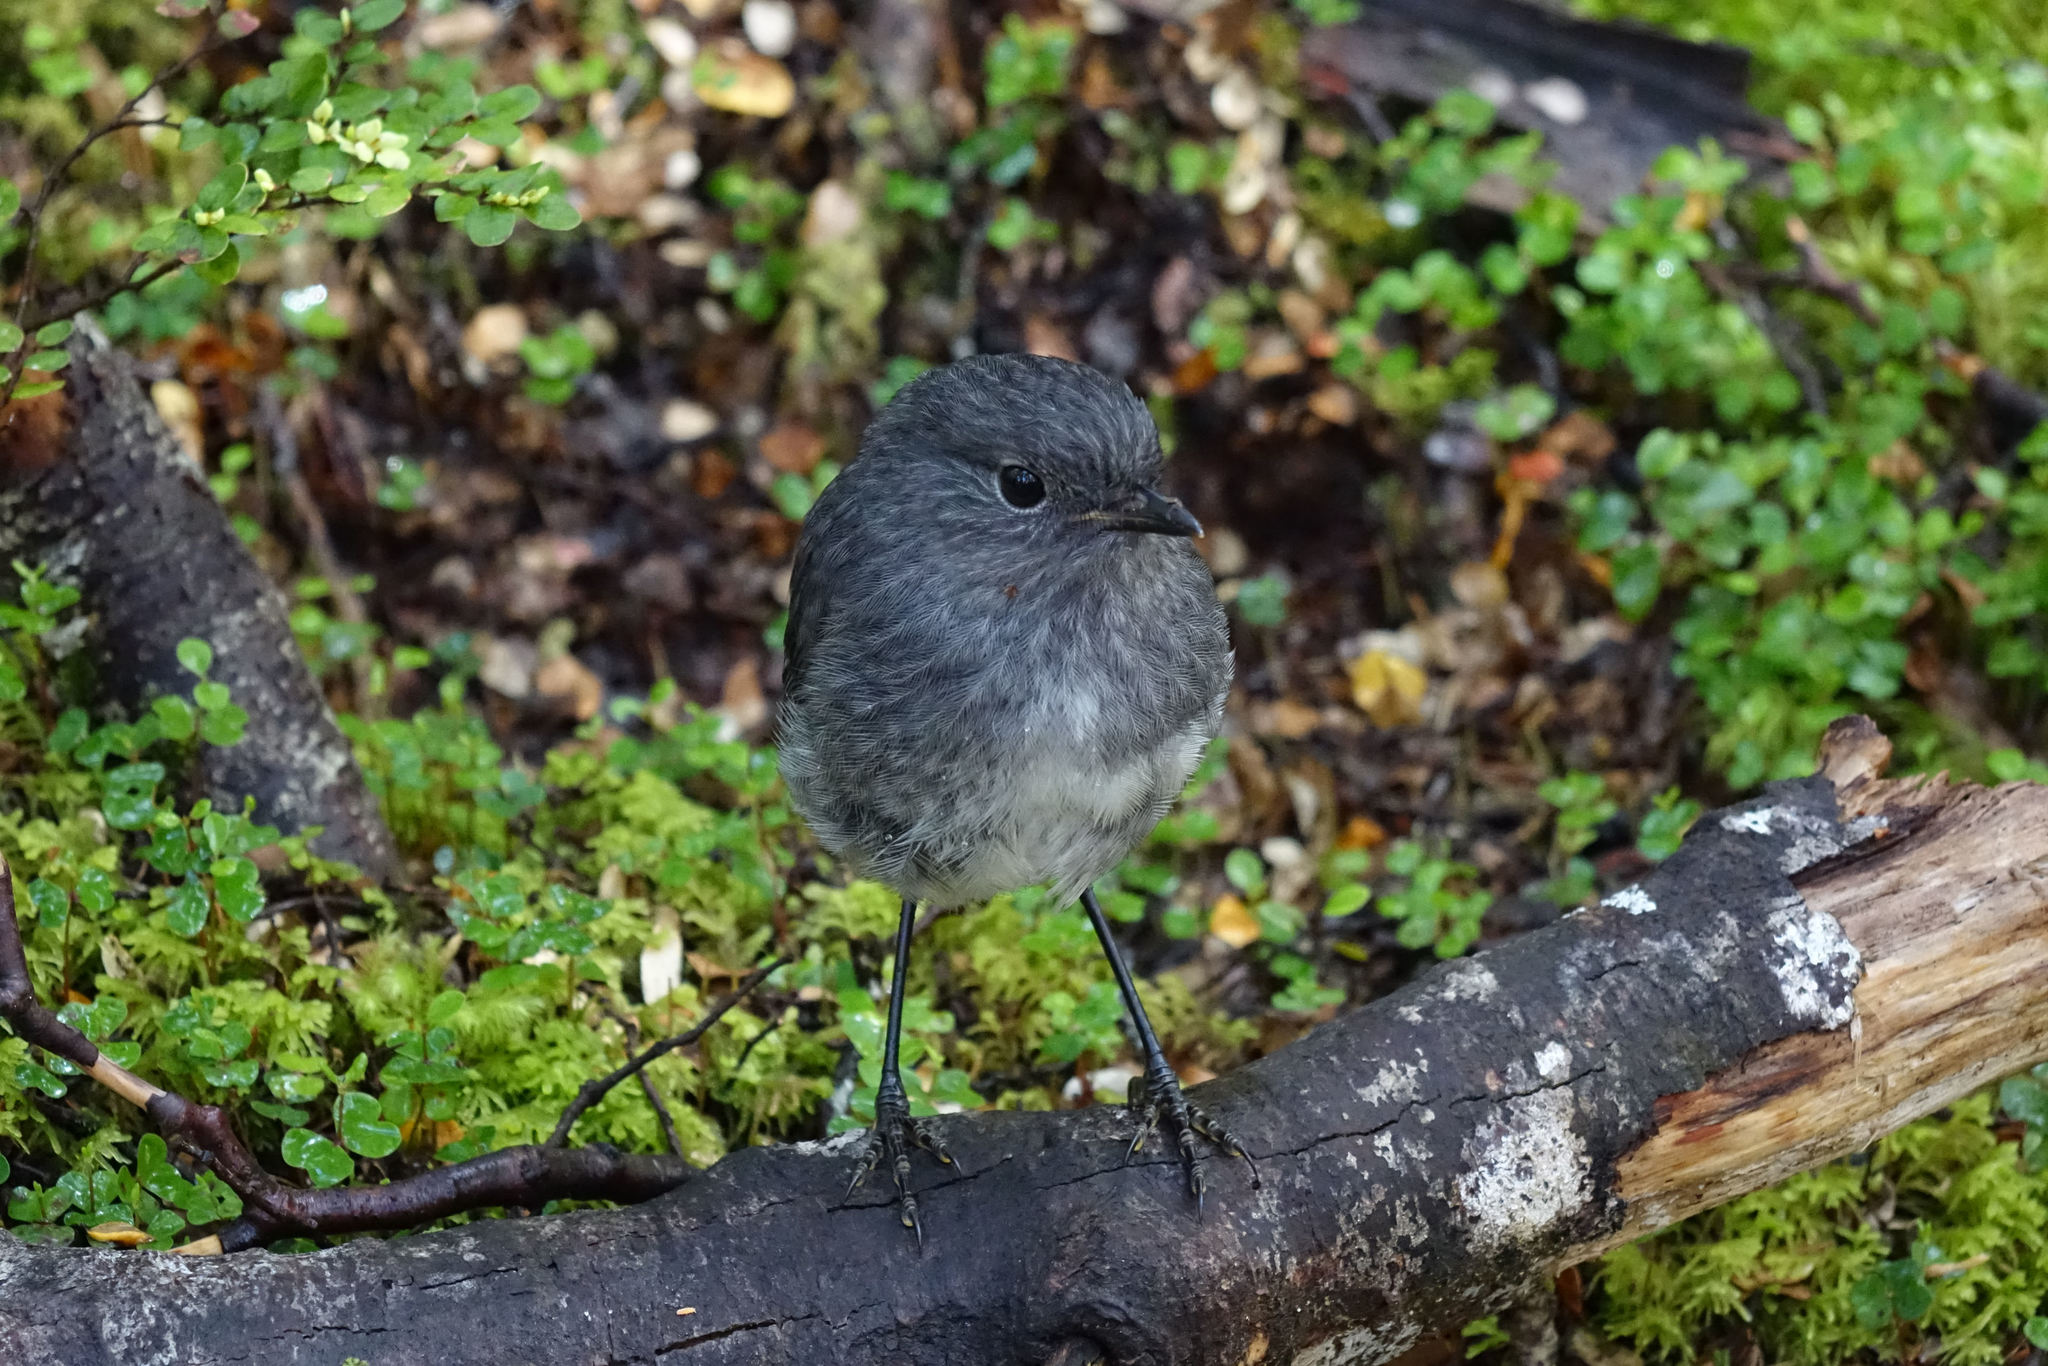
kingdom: Animalia
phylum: Chordata
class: Aves
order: Passeriformes
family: Petroicidae
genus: Petroica
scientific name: Petroica australis
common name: New zealand robin
